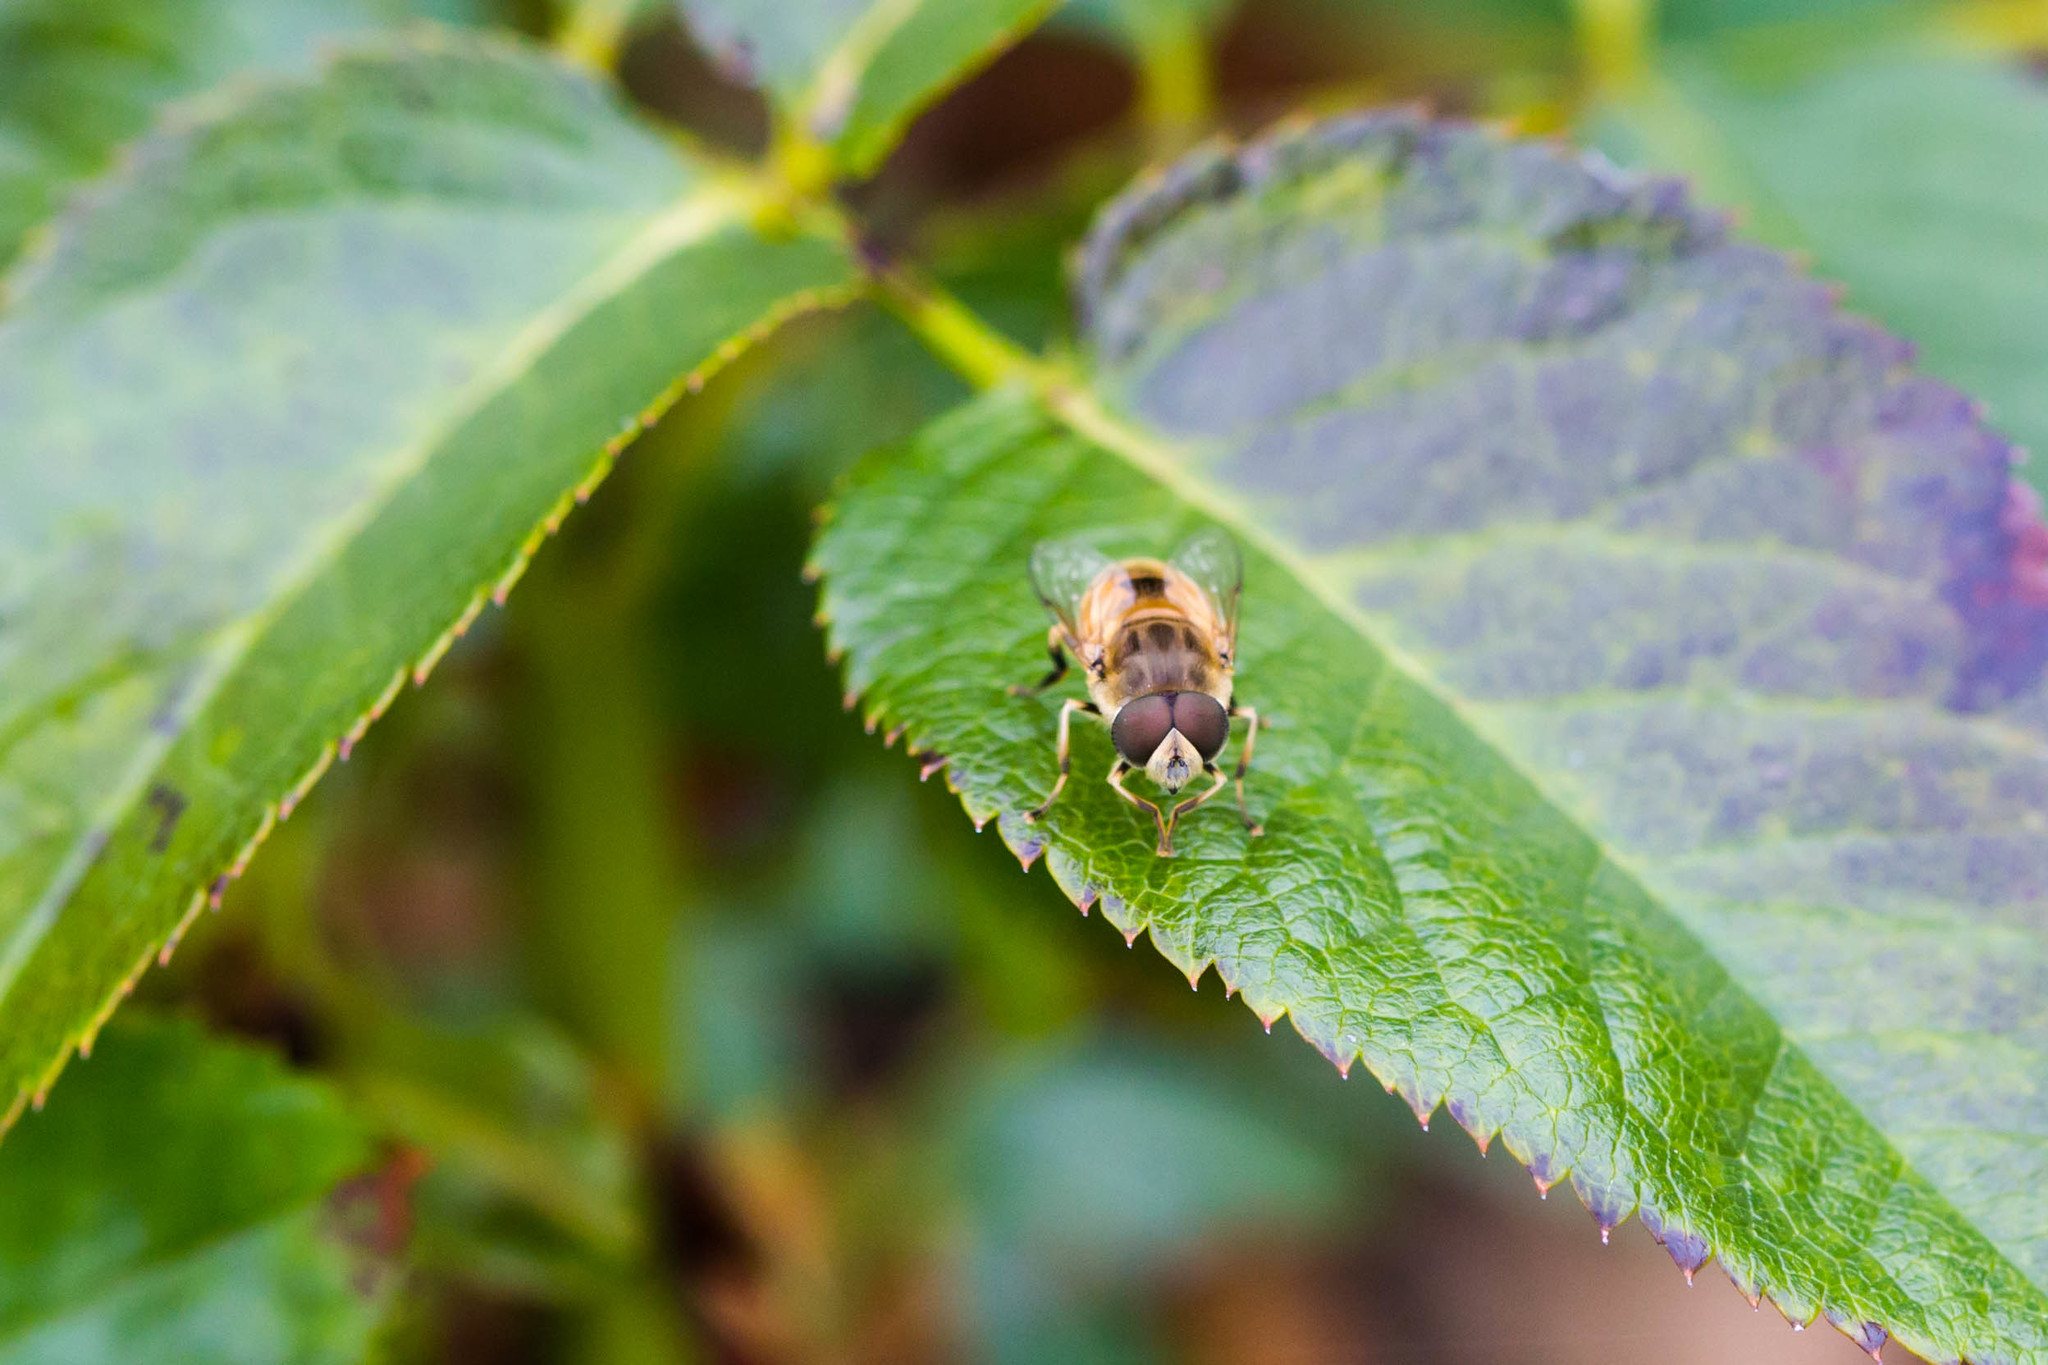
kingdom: Animalia
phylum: Arthropoda
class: Insecta
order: Diptera
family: Syrphidae
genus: Eristalis
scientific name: Eristalis arbustorum
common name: Hover fly
